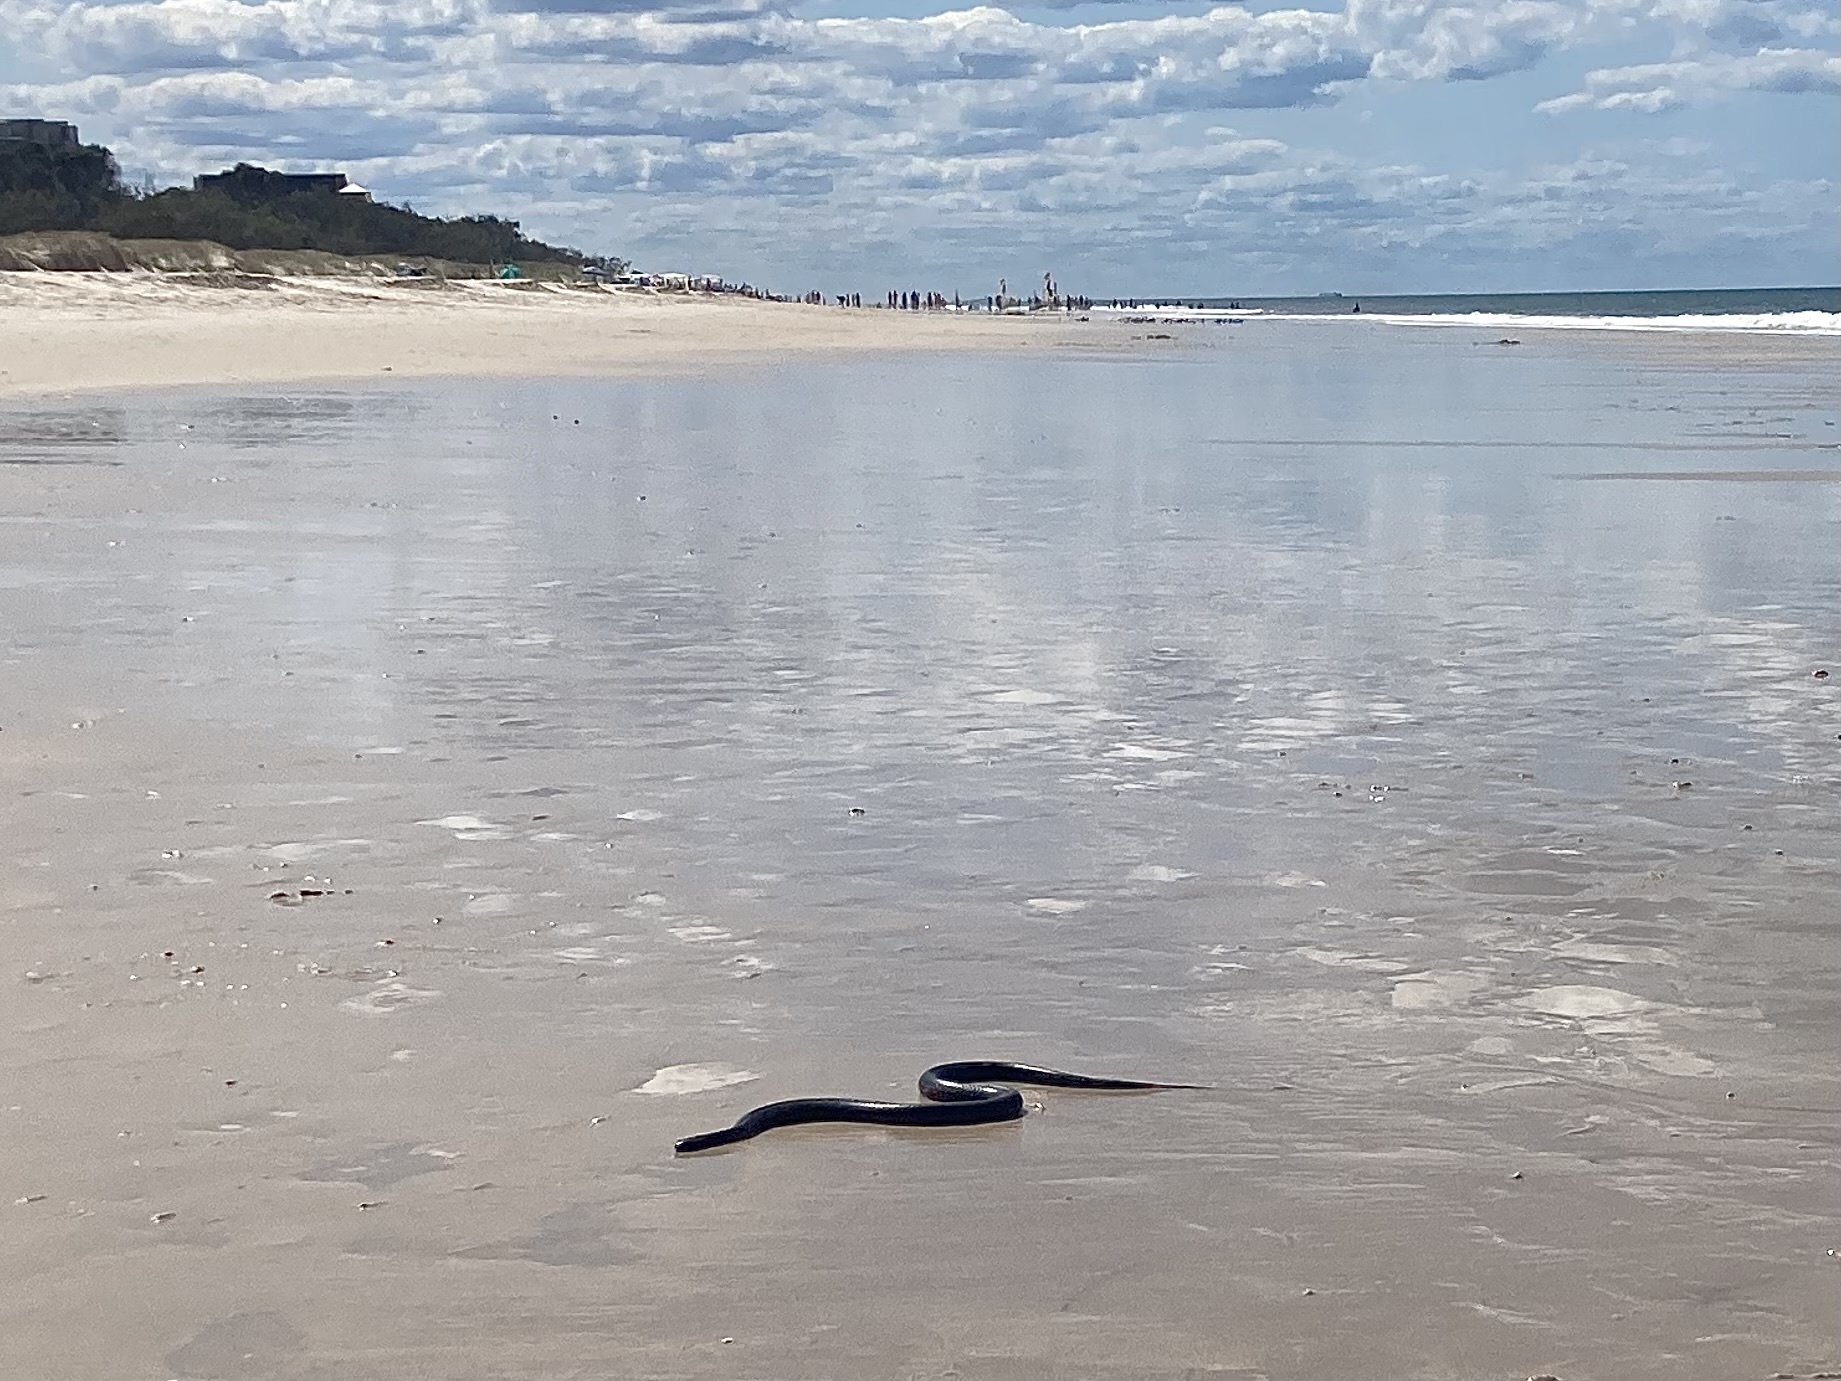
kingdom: Animalia
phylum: Chordata
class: Squamata
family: Elapidae
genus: Pseudechis
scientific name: Pseudechis porphyriacus
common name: Australian black snake
